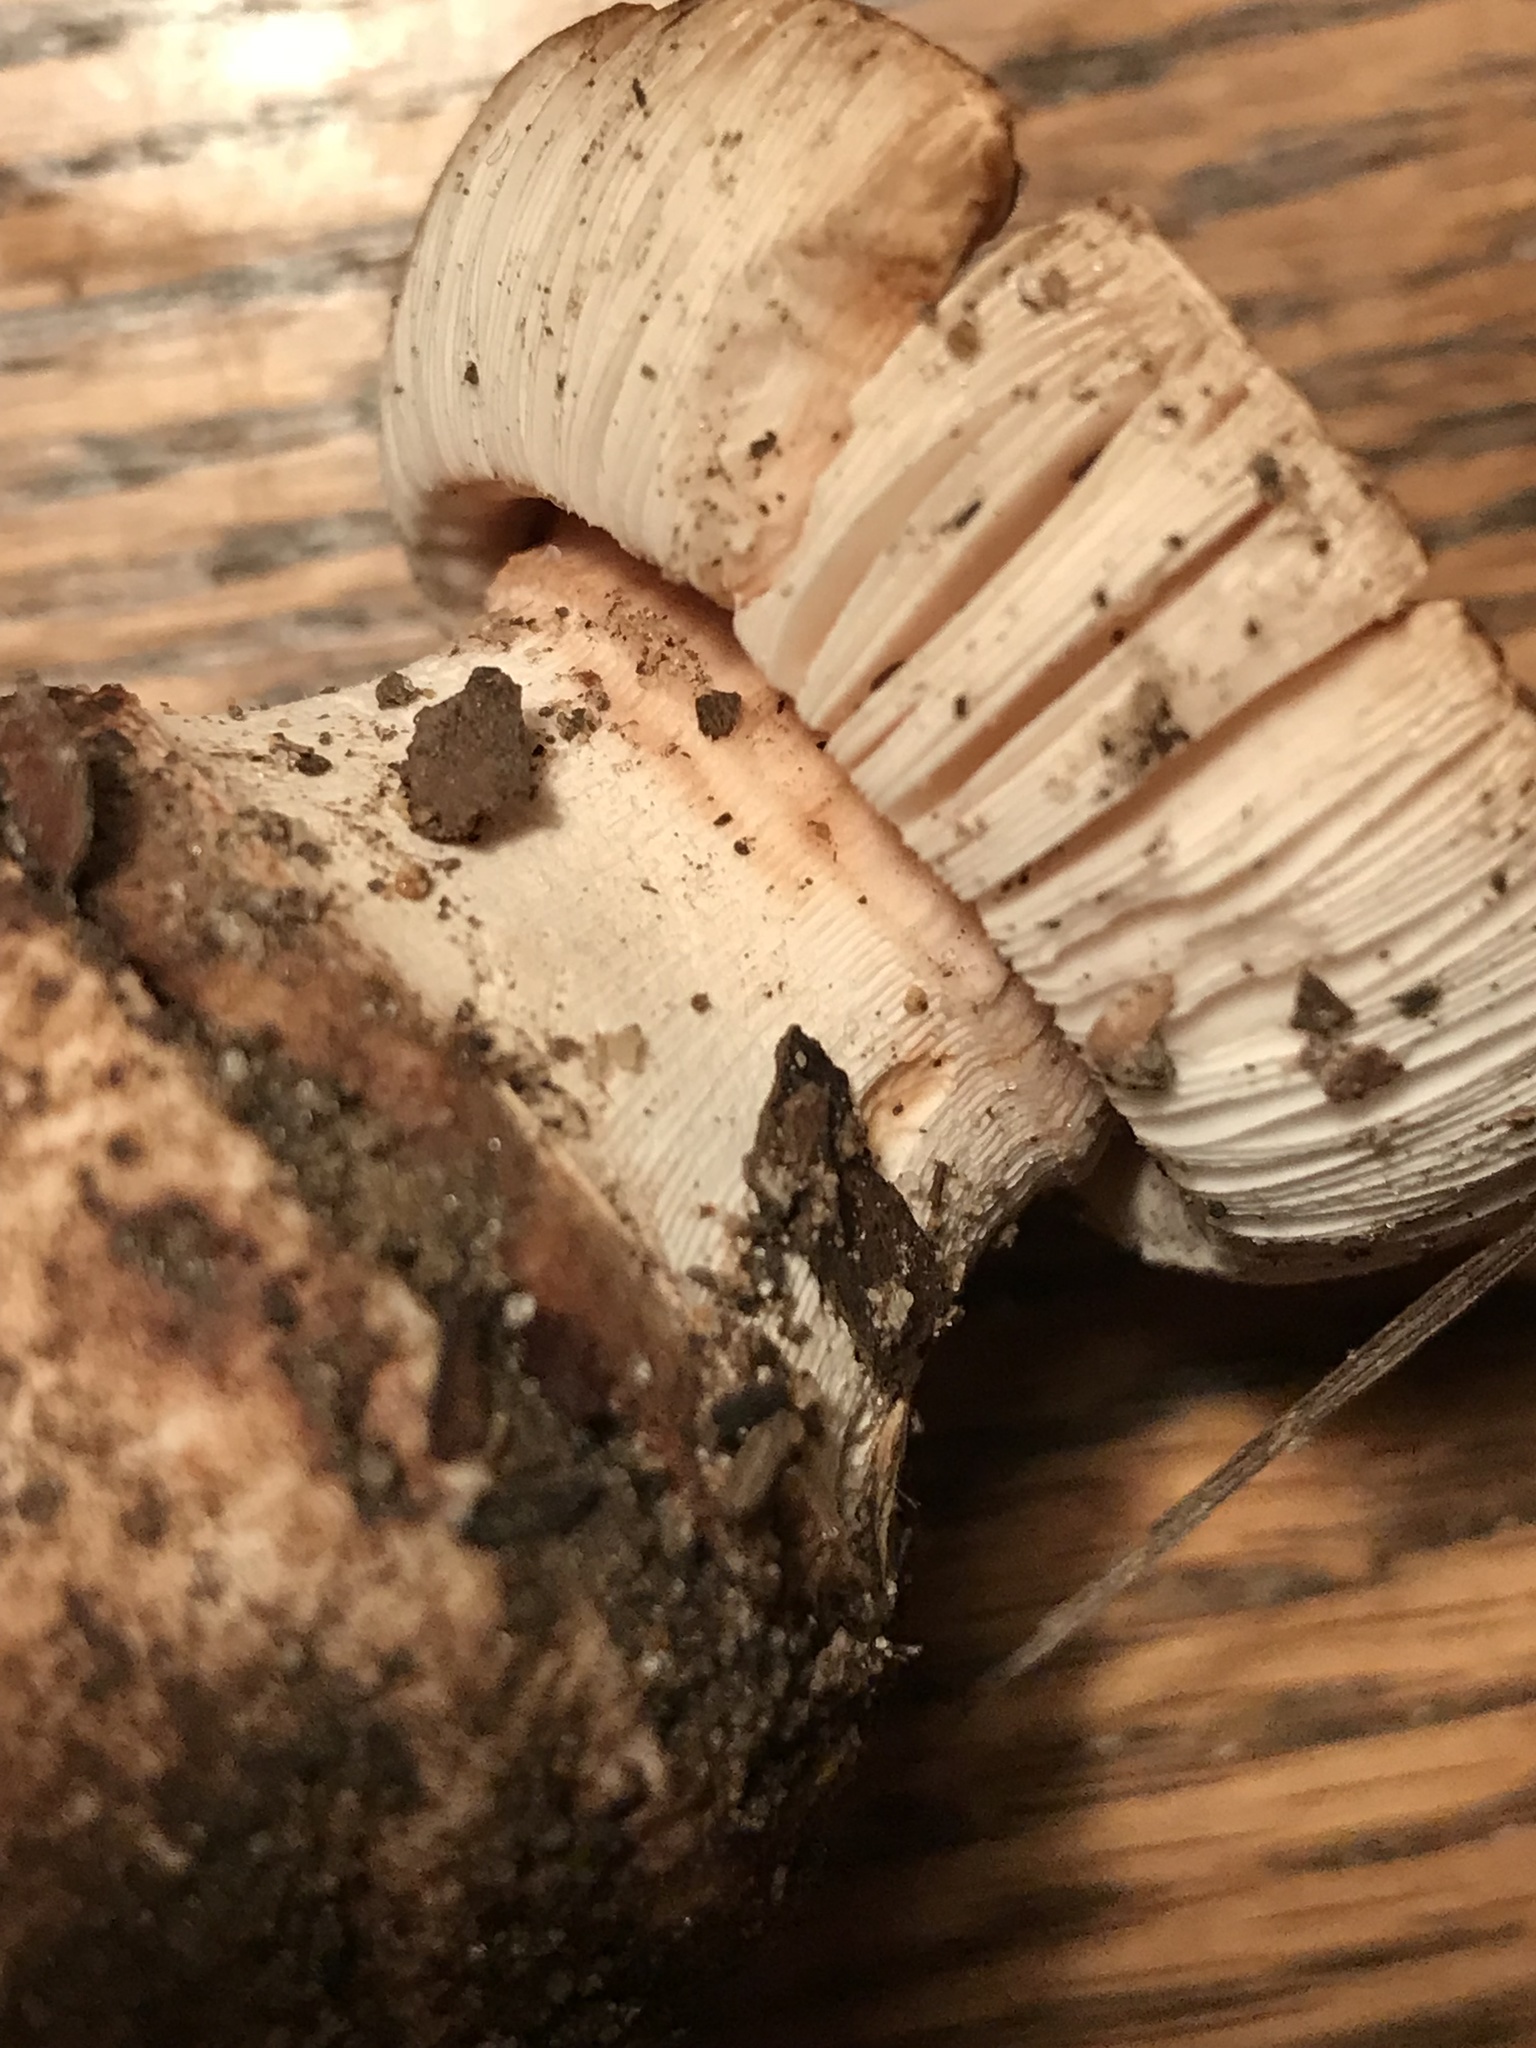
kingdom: Fungi
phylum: Basidiomycota
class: Agaricomycetes
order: Agaricales
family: Amanitaceae
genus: Amanita
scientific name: Amanita novinupta
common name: Blushing bride
